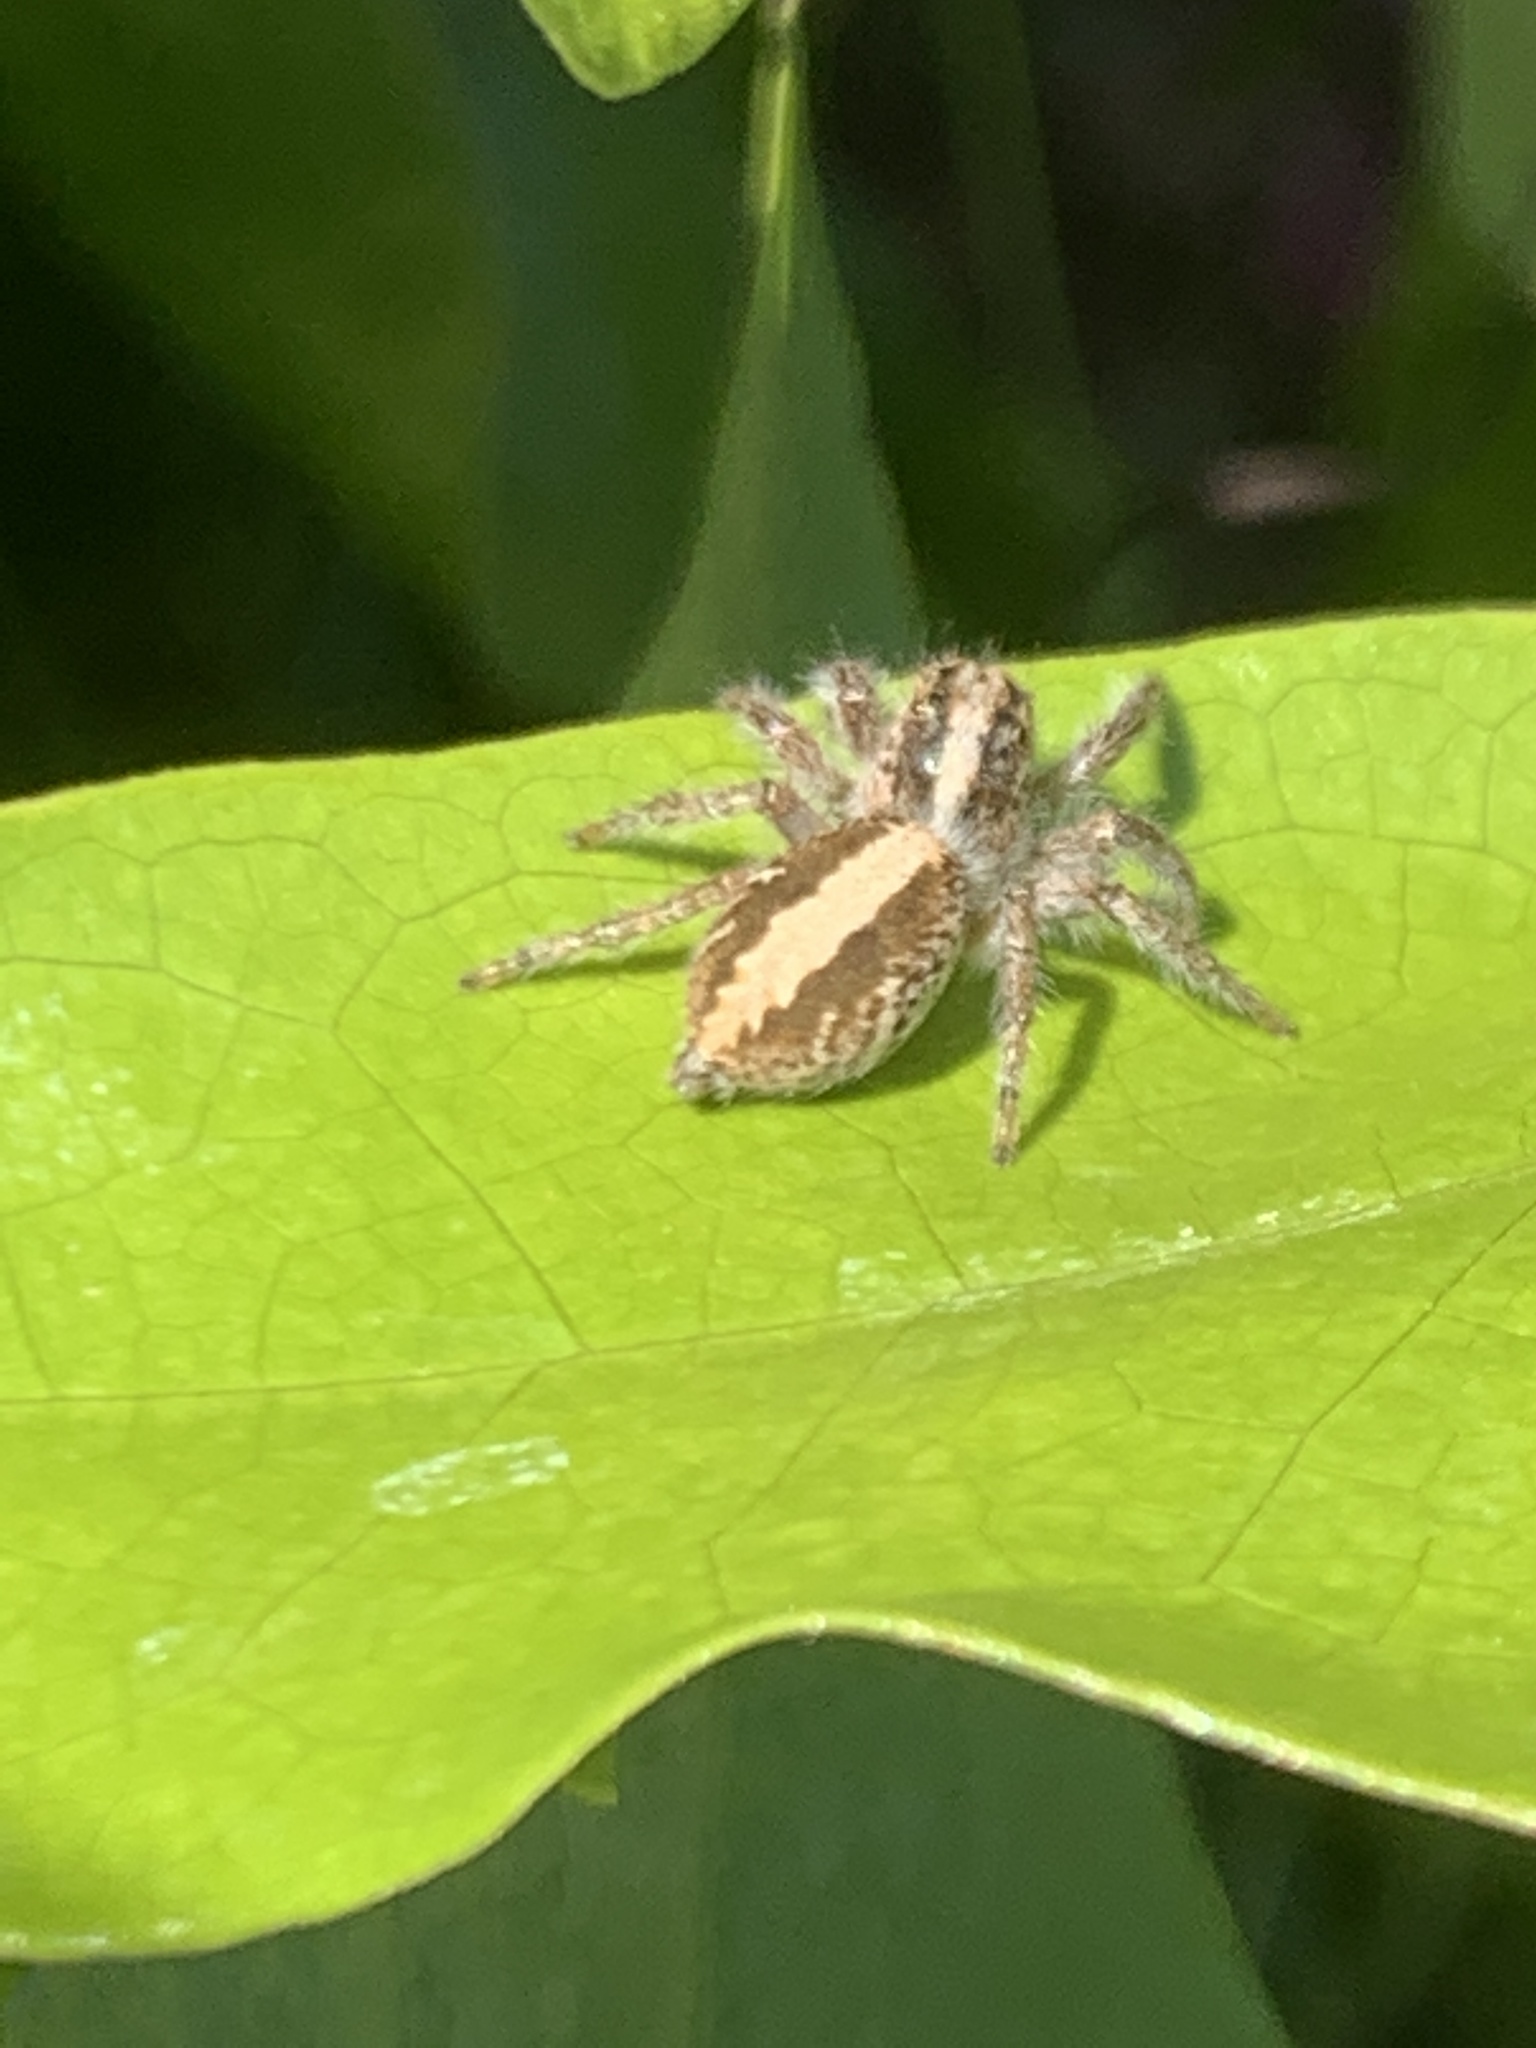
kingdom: Animalia
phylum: Arthropoda
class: Arachnida
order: Araneae
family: Salticidae
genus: Megafreya
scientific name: Megafreya sutrix
